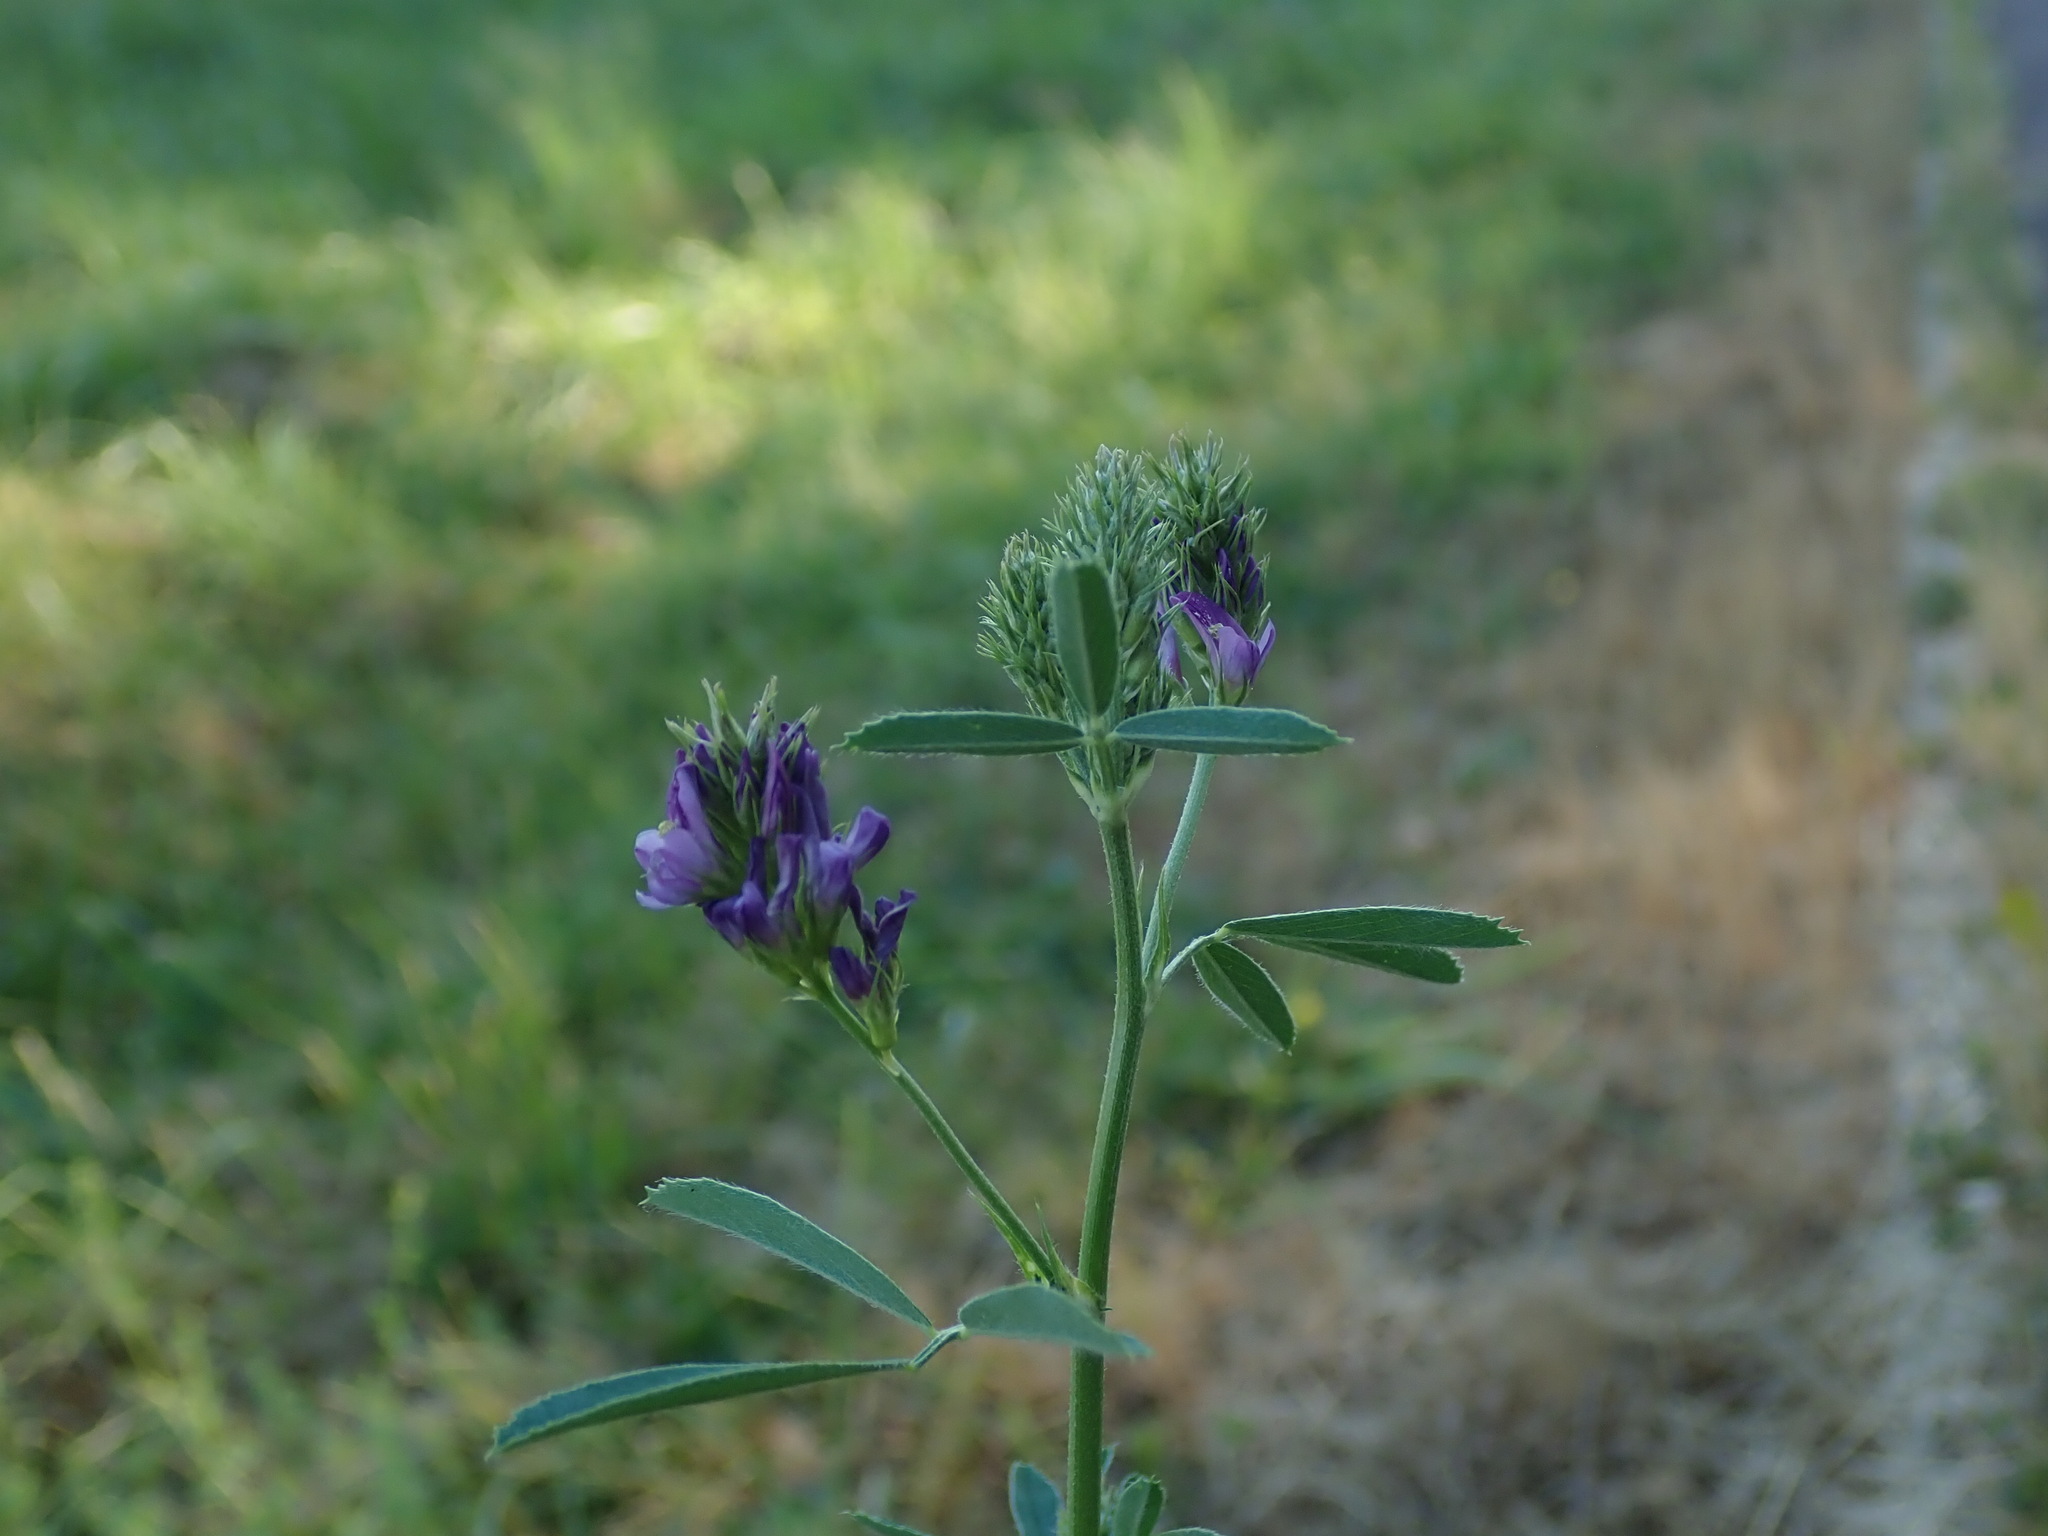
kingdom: Plantae
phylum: Tracheophyta
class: Magnoliopsida
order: Fabales
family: Fabaceae
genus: Medicago
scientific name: Medicago sativa
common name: Alfalfa
